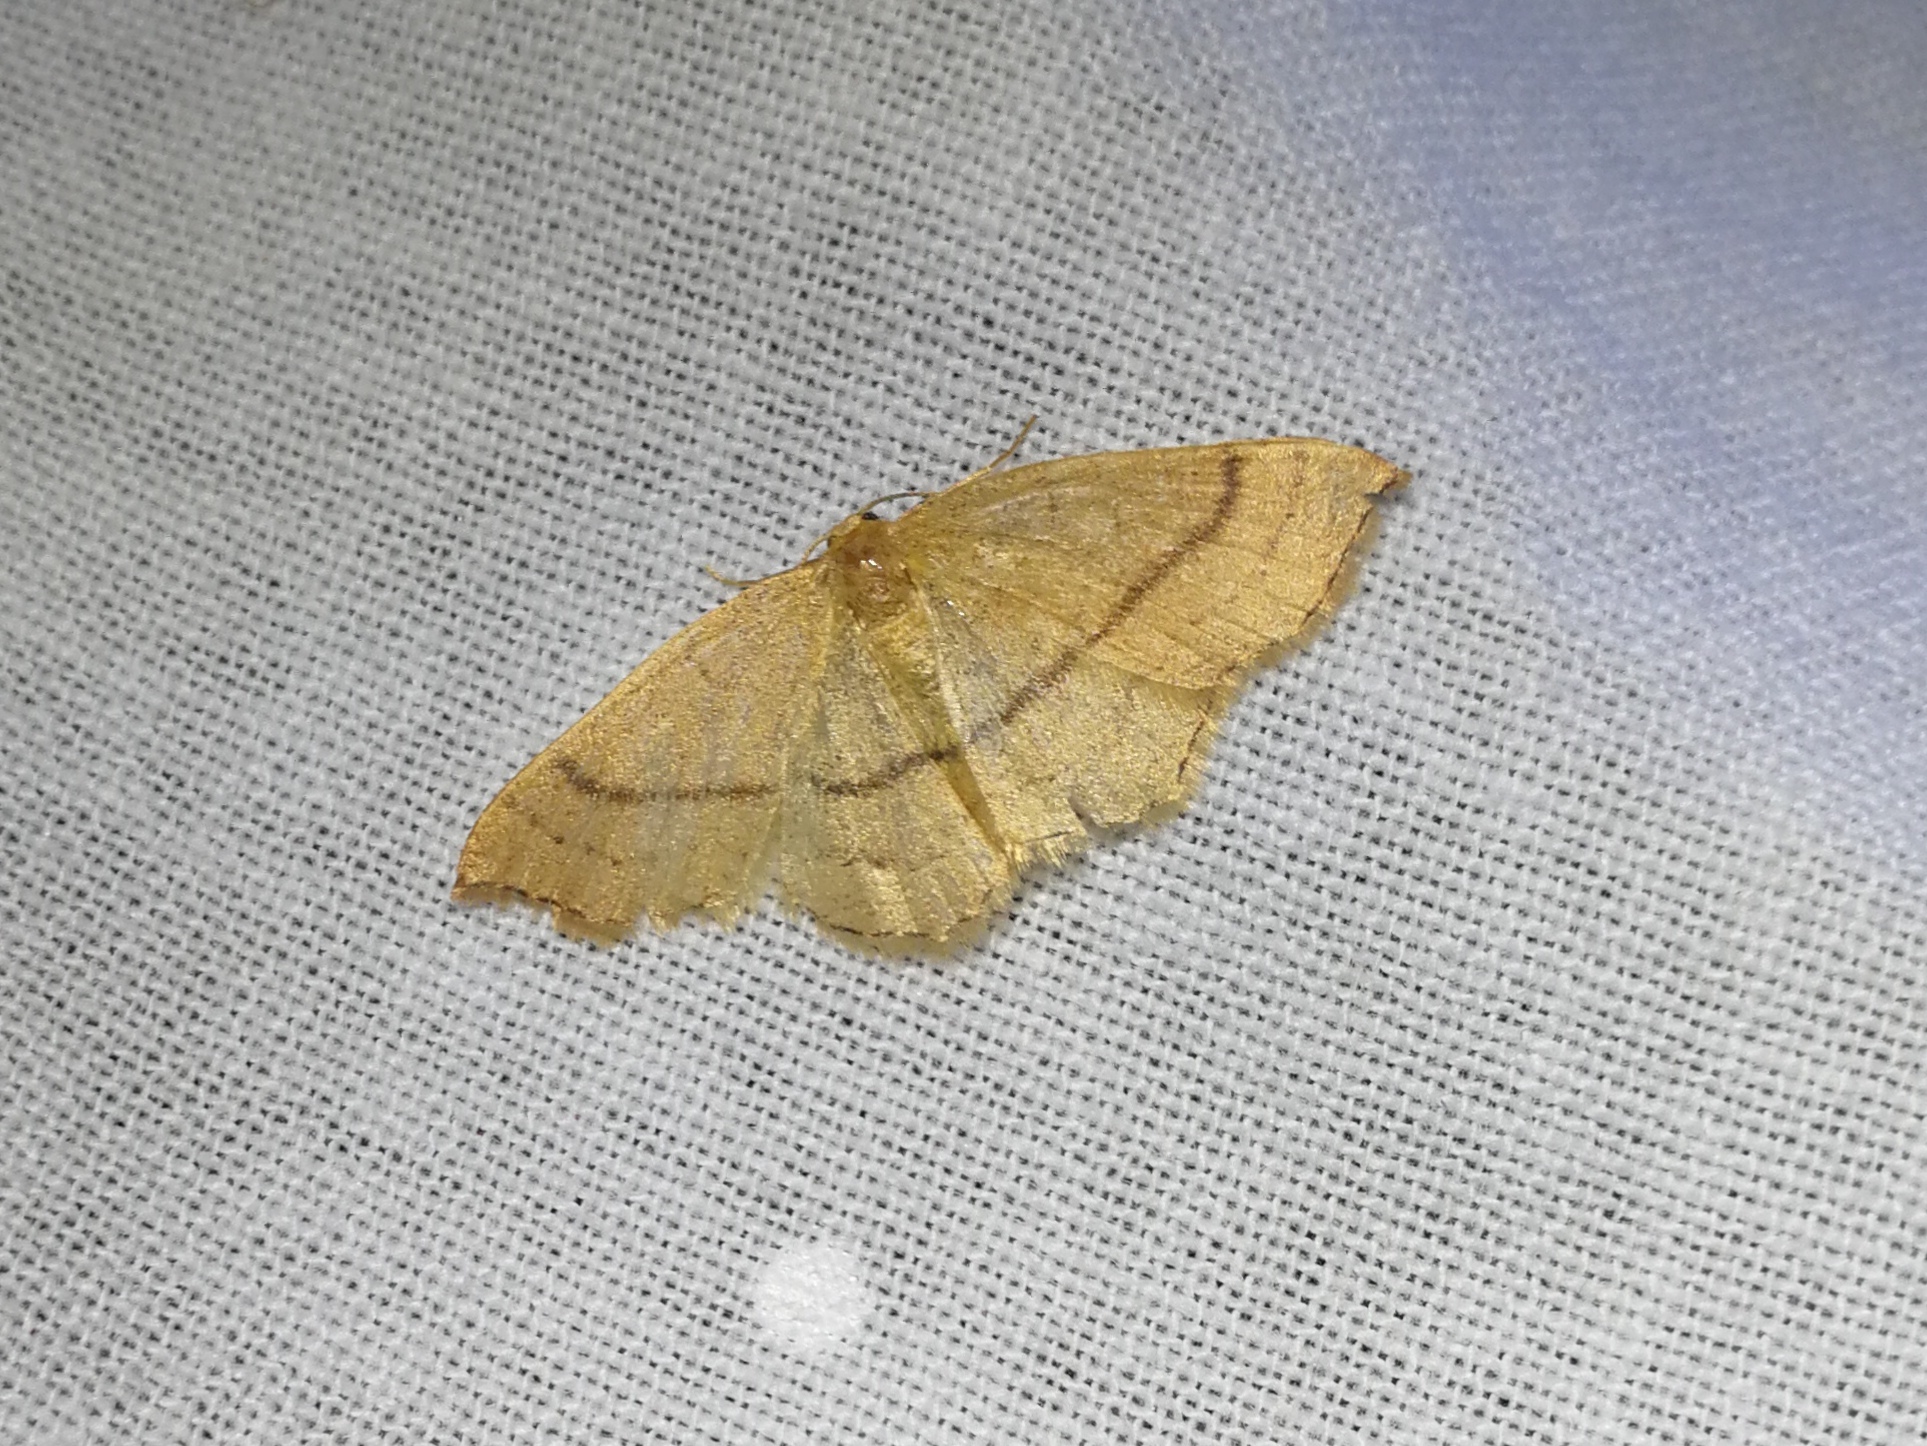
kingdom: Animalia
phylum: Arthropoda
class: Insecta
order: Lepidoptera
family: Geometridae
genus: Cyclophora
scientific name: Cyclophora linearia
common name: Clay triple-lines
